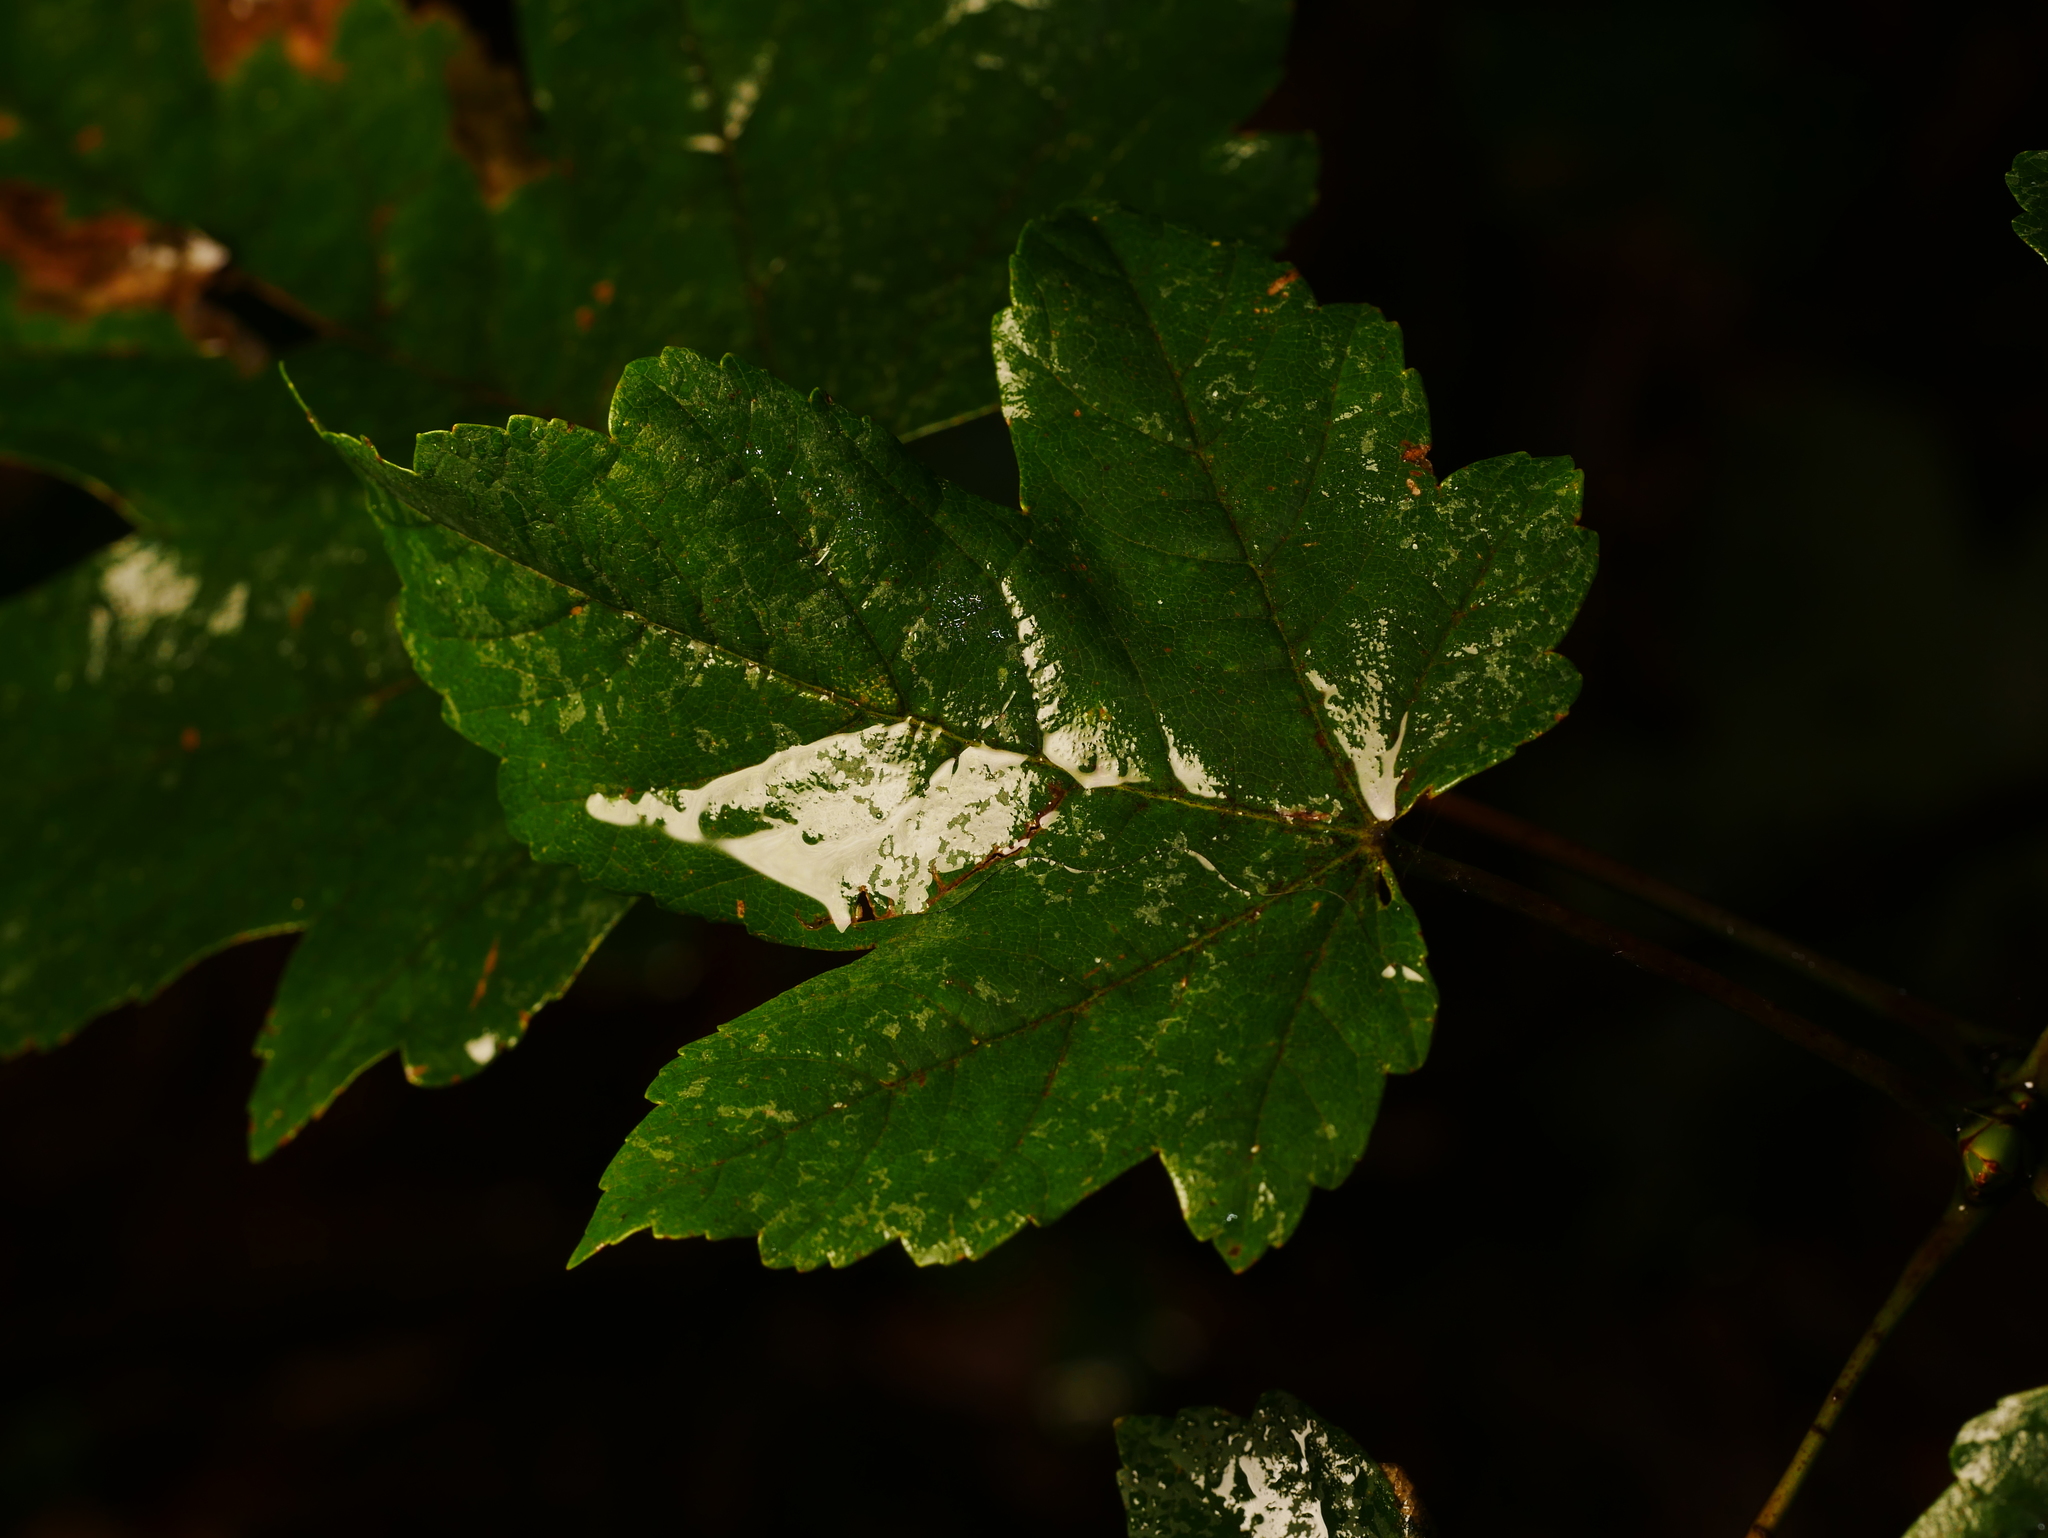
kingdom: Plantae
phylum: Tracheophyta
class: Magnoliopsida
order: Sapindales
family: Sapindaceae
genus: Acer
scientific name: Acer pseudoplatanus
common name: Sycamore
